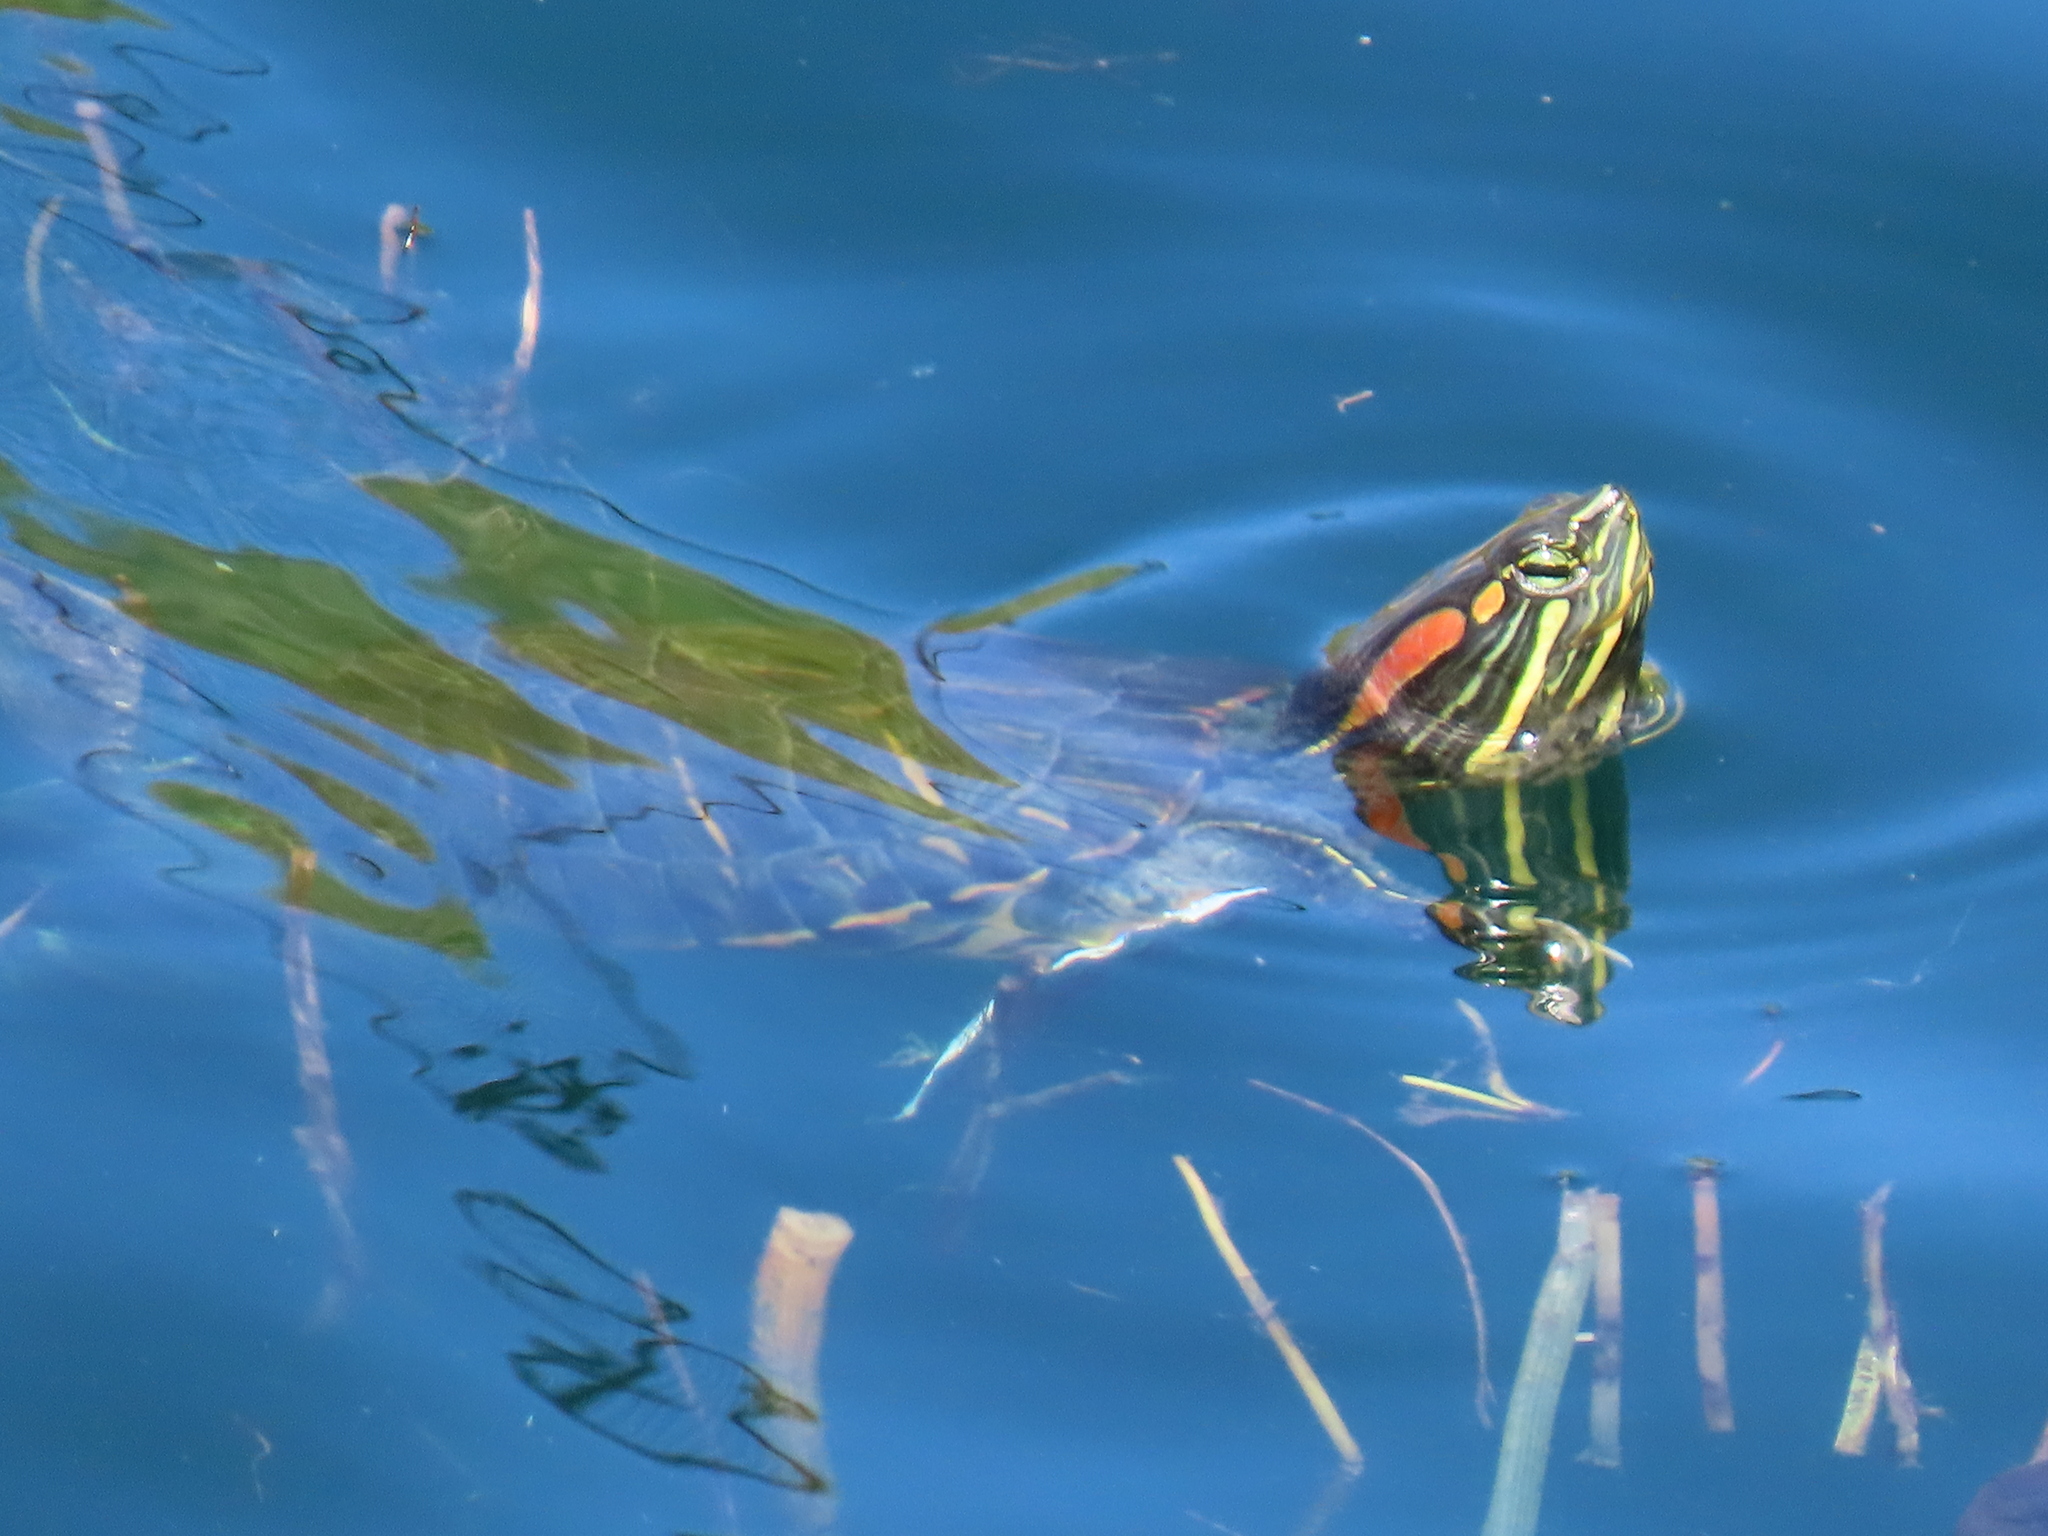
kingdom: Animalia
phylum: Chordata
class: Testudines
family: Emydidae
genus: Trachemys
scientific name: Trachemys scripta
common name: Slider
